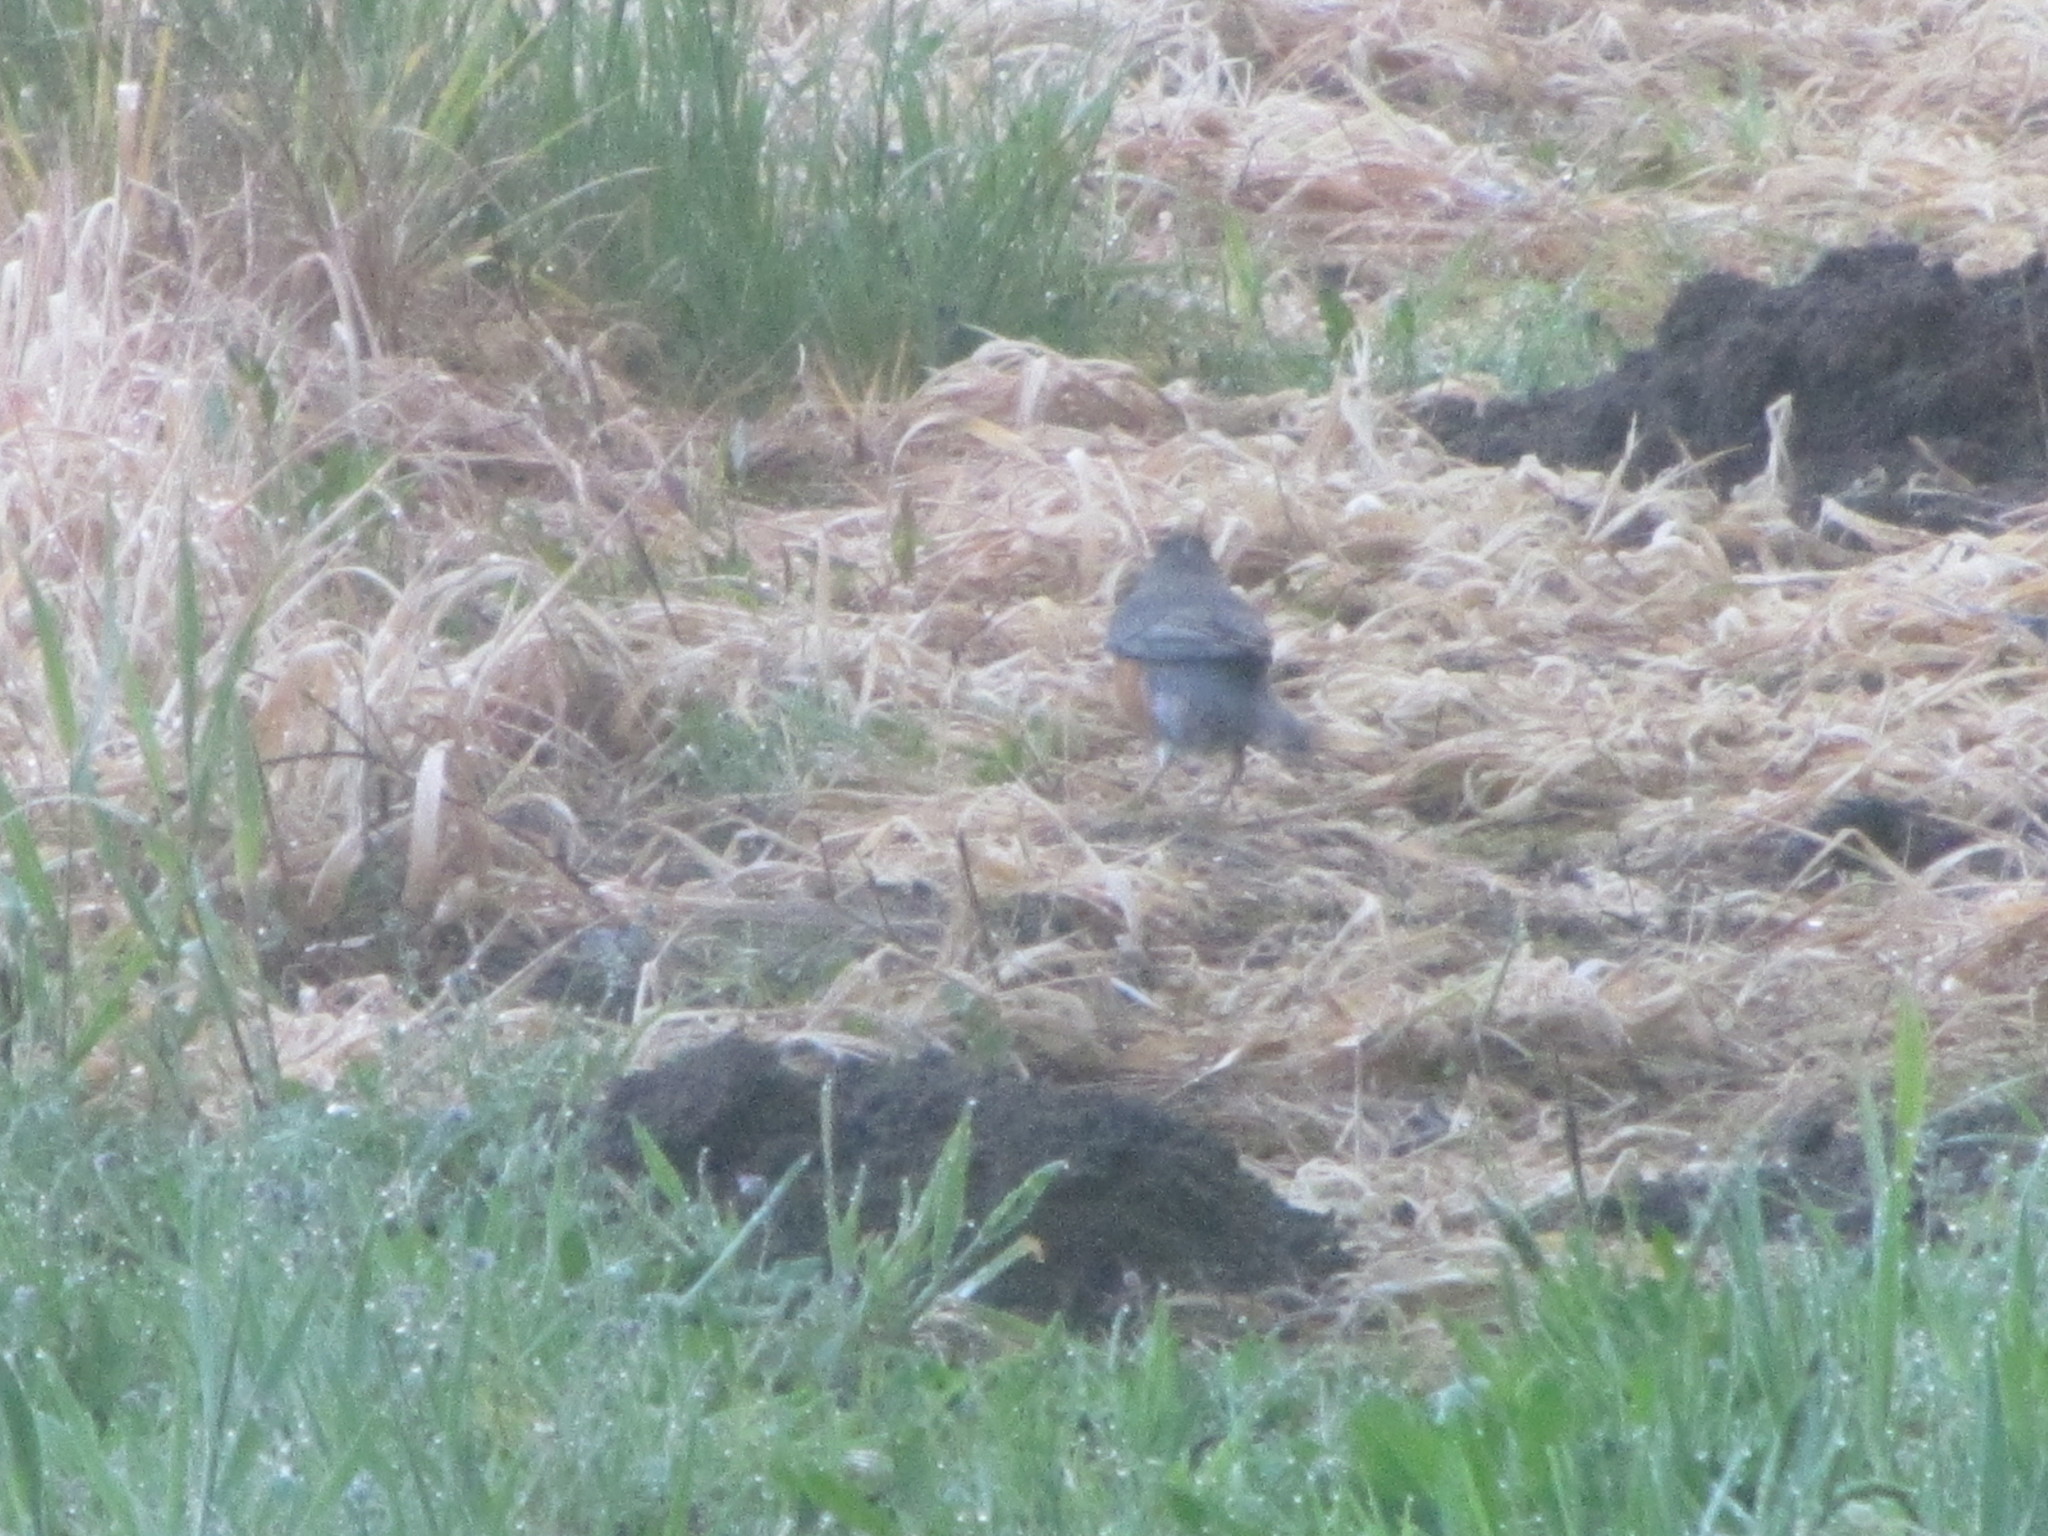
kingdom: Animalia
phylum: Chordata
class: Aves
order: Passeriformes
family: Turdidae
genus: Turdus
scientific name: Turdus migratorius
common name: American robin
